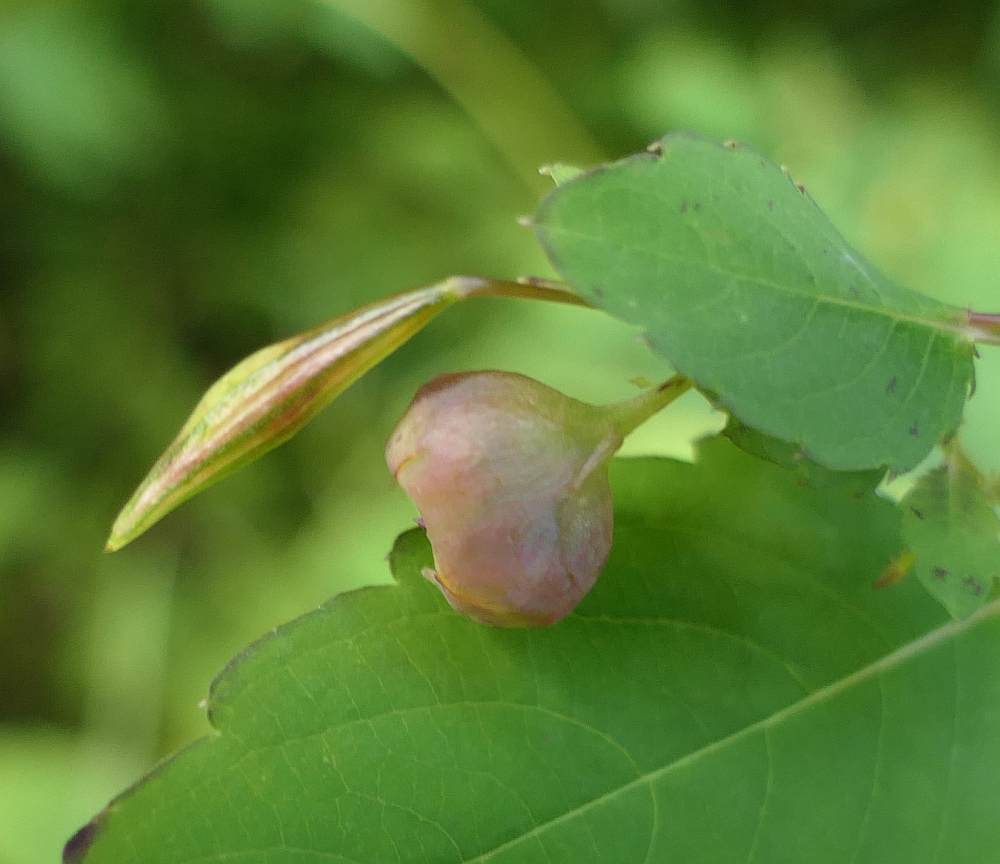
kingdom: Animalia
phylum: Arthropoda
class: Insecta
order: Diptera
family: Cecidomyiidae
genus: Schizomyia
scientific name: Schizomyia impatientis
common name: Jewelweed gall midge
